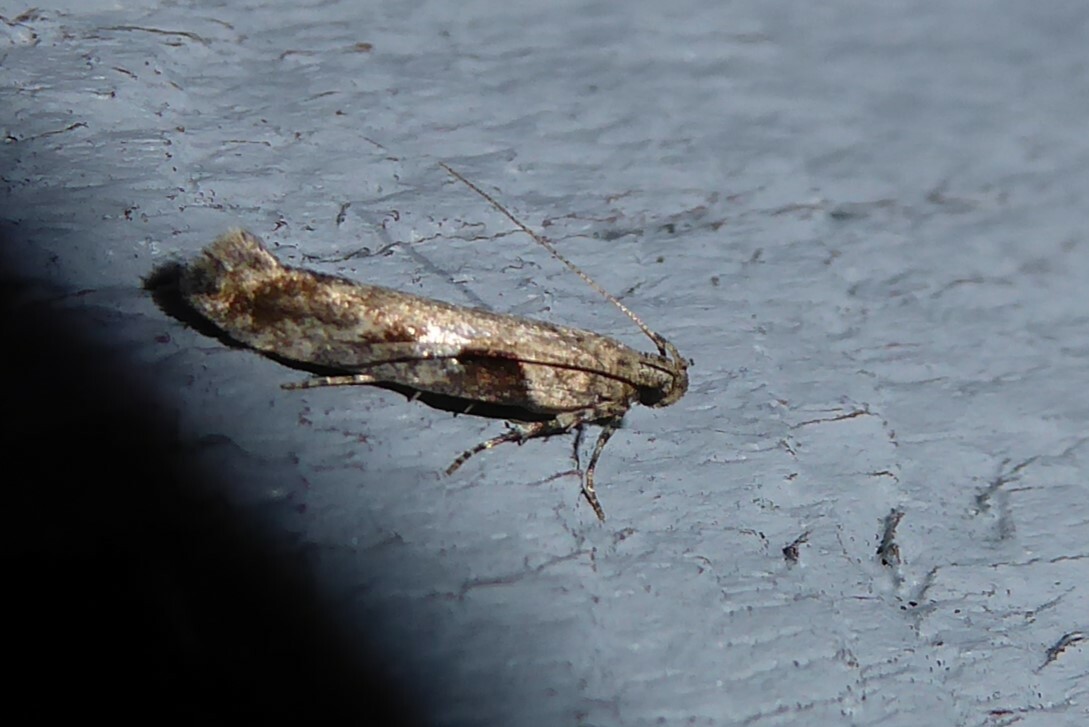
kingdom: Animalia
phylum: Arthropoda
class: Insecta
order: Lepidoptera
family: Gelechiidae
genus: Symmetrischema
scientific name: Symmetrischema tangolias
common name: Moth
